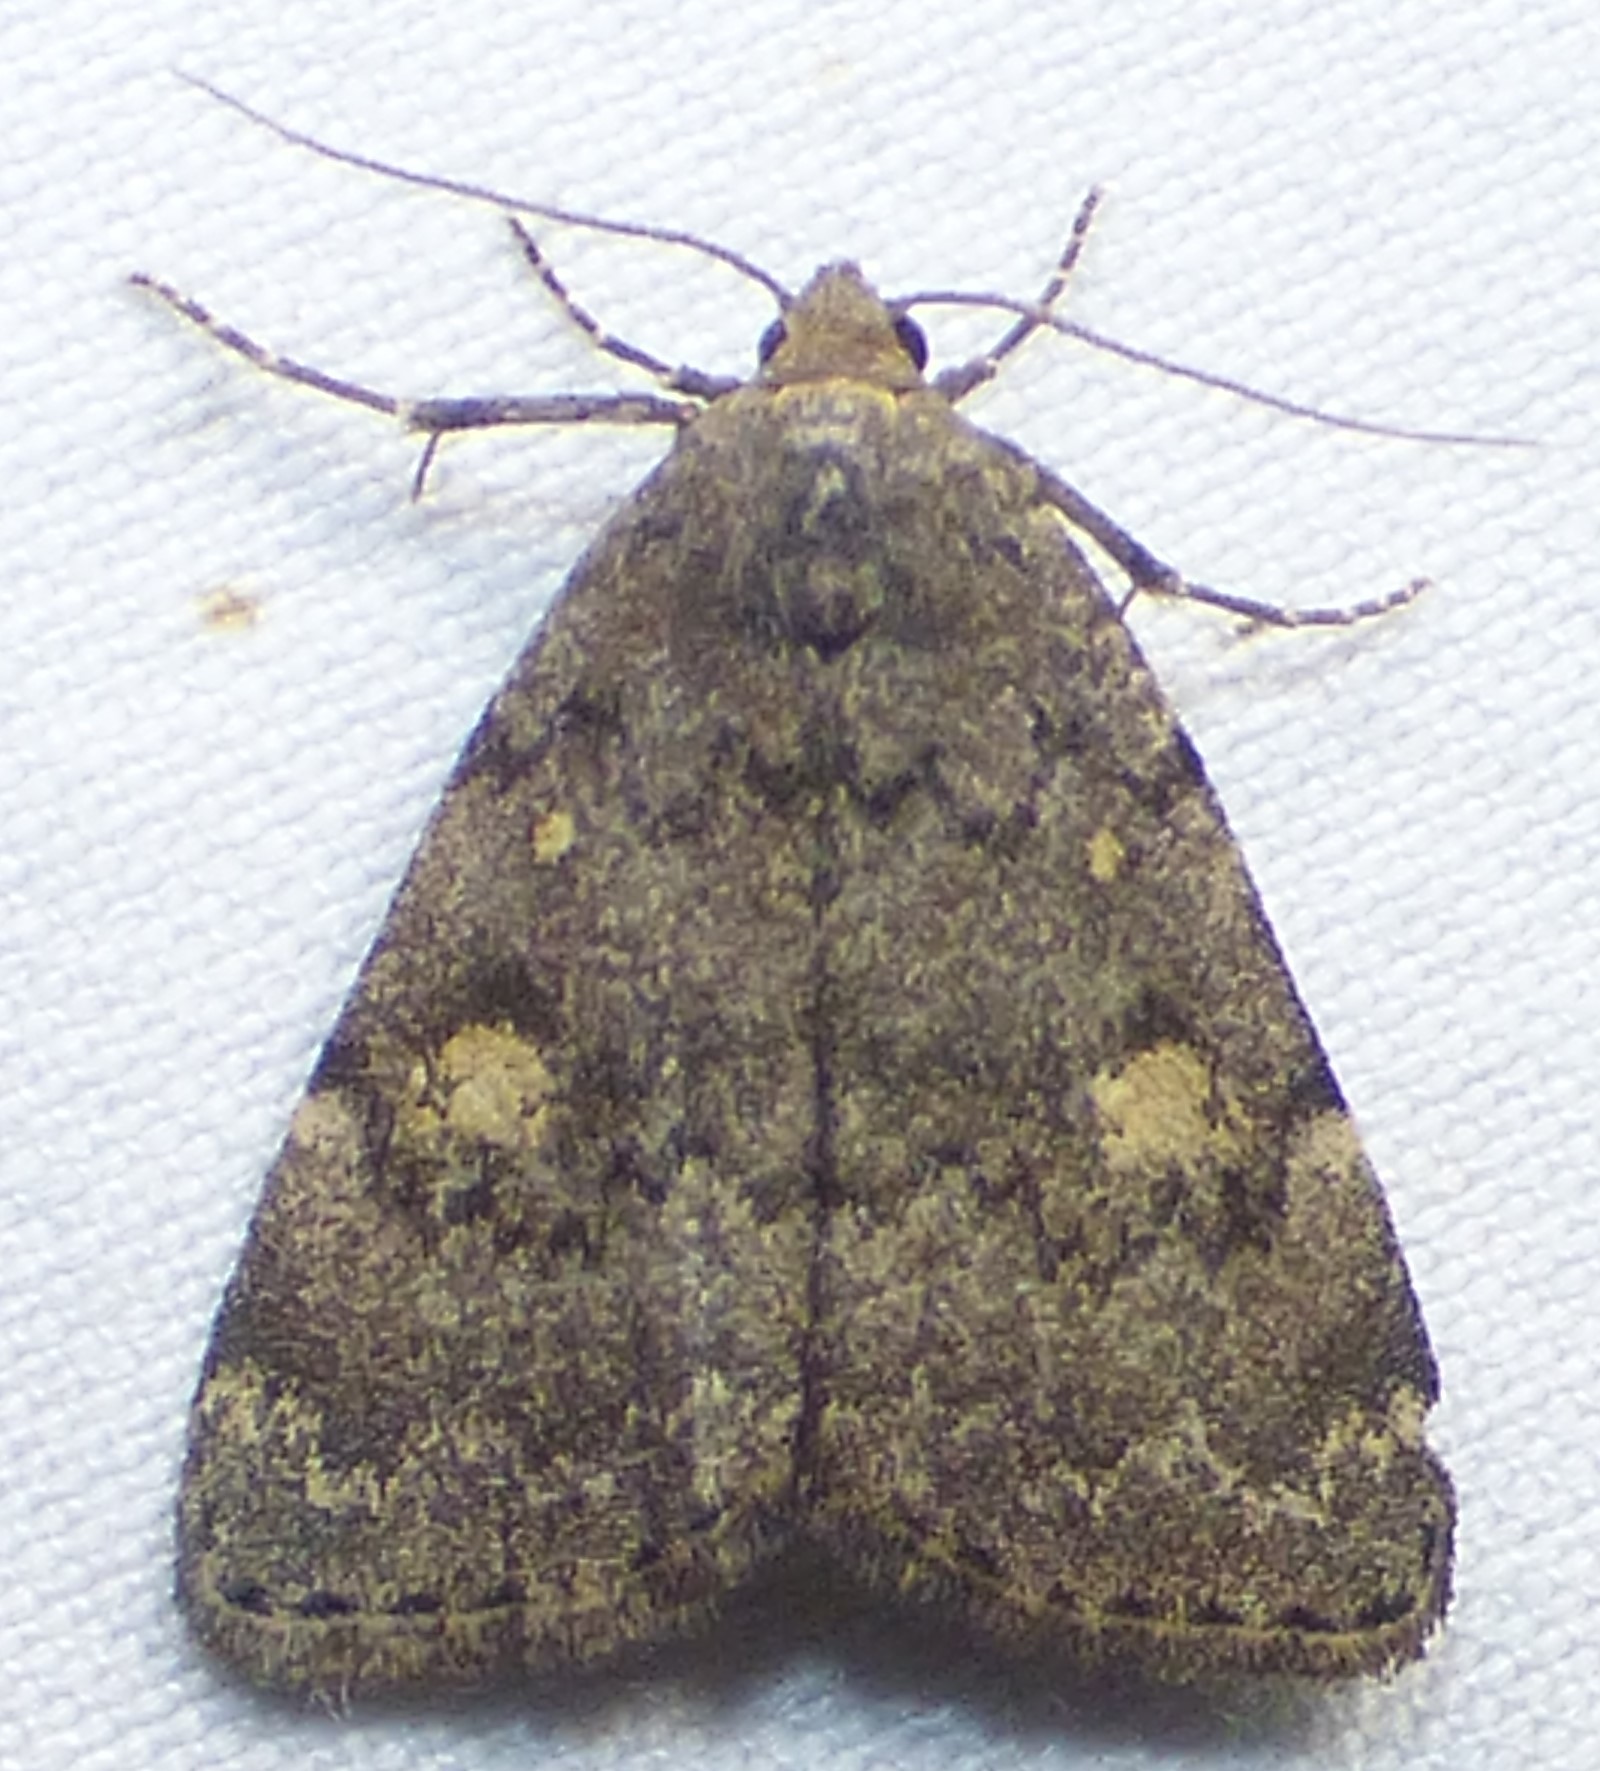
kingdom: Animalia
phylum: Arthropoda
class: Insecta
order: Lepidoptera
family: Erebidae
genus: Idia
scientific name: Idia aemula
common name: Common idia moth
